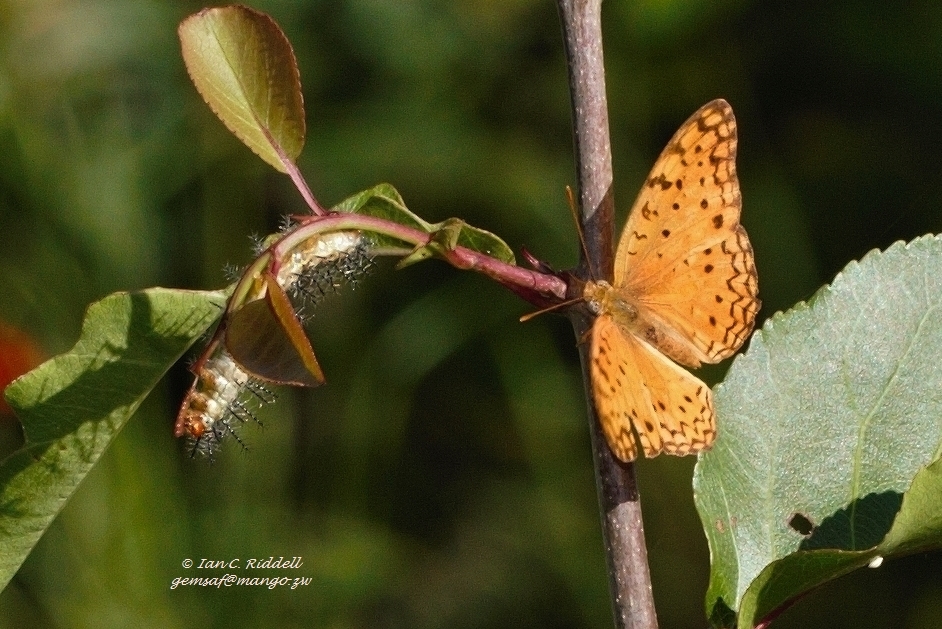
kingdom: Animalia
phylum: Arthropoda
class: Insecta
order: Lepidoptera
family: Nymphalidae
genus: Phalanta
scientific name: Phalanta phalantha
